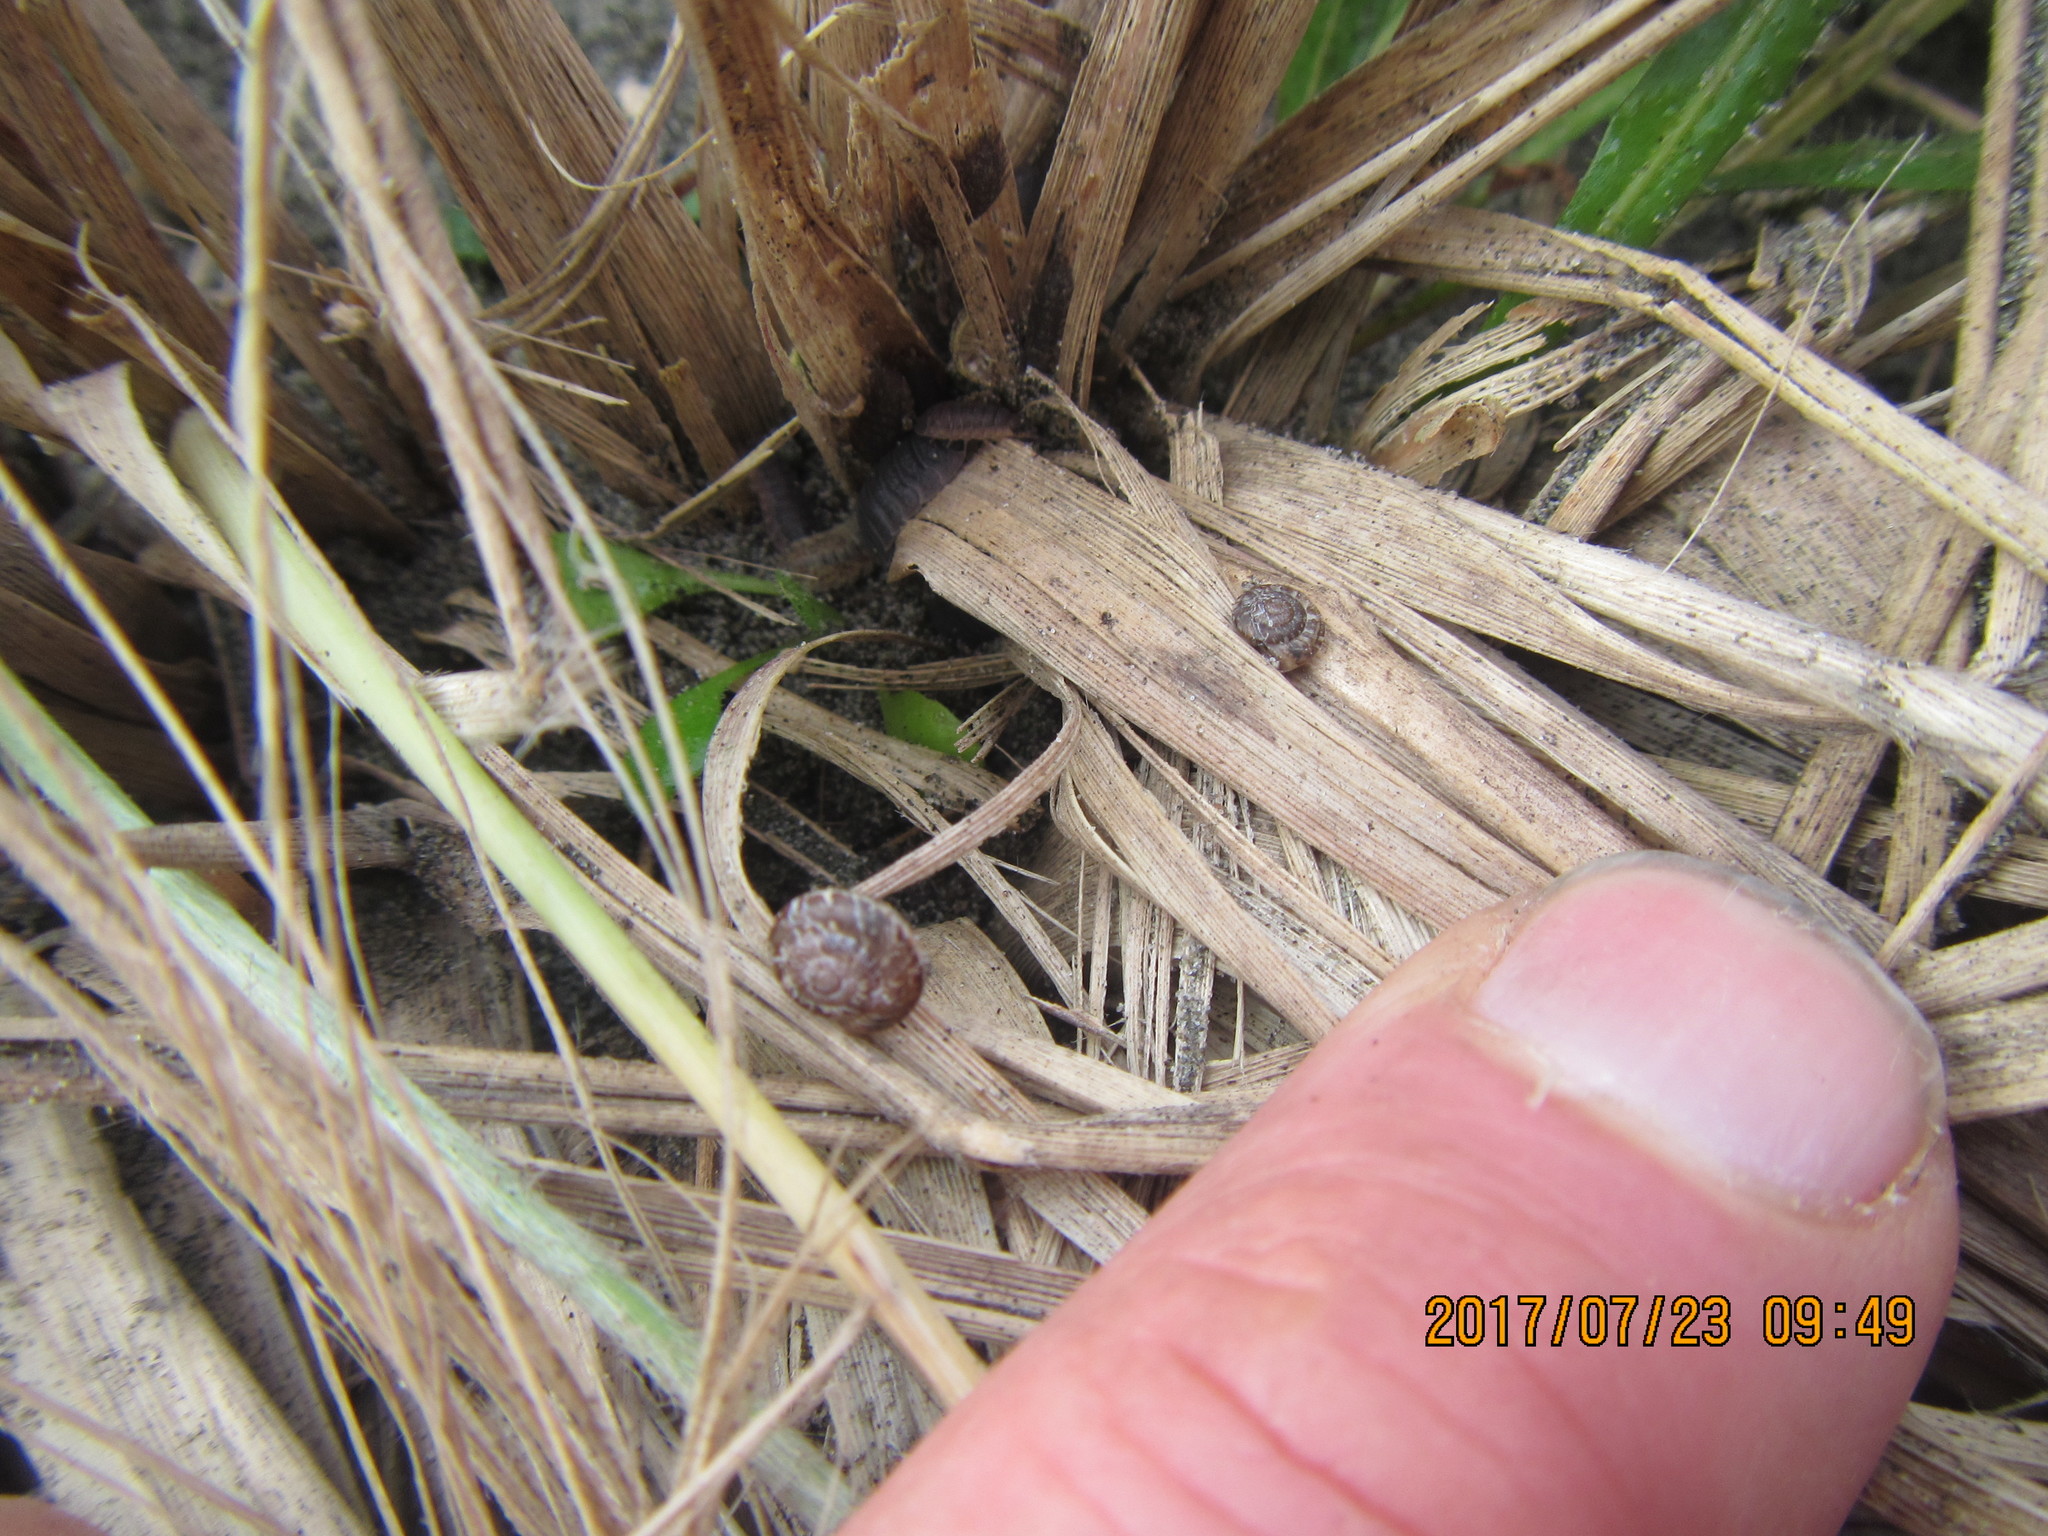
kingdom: Animalia
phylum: Mollusca
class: Gastropoda
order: Stylommatophora
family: Geomitridae
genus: Xeroplexa
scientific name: Xeroplexa intersecta
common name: Wrinkled snail
